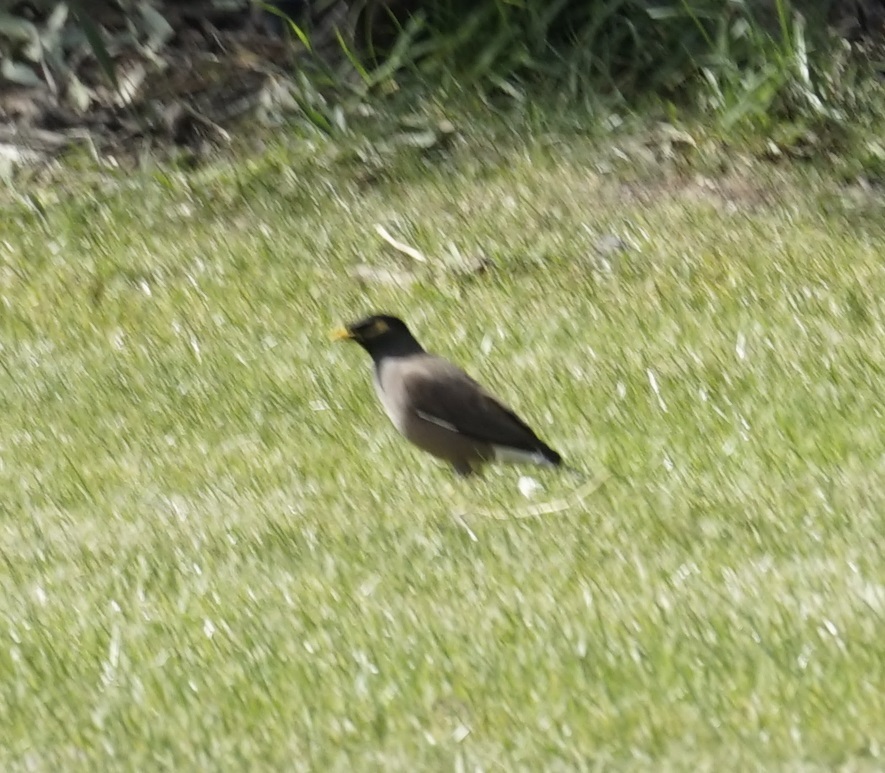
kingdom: Animalia
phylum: Chordata
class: Aves
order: Passeriformes
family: Sturnidae
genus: Acridotheres
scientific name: Acridotheres tristis
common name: Common myna
